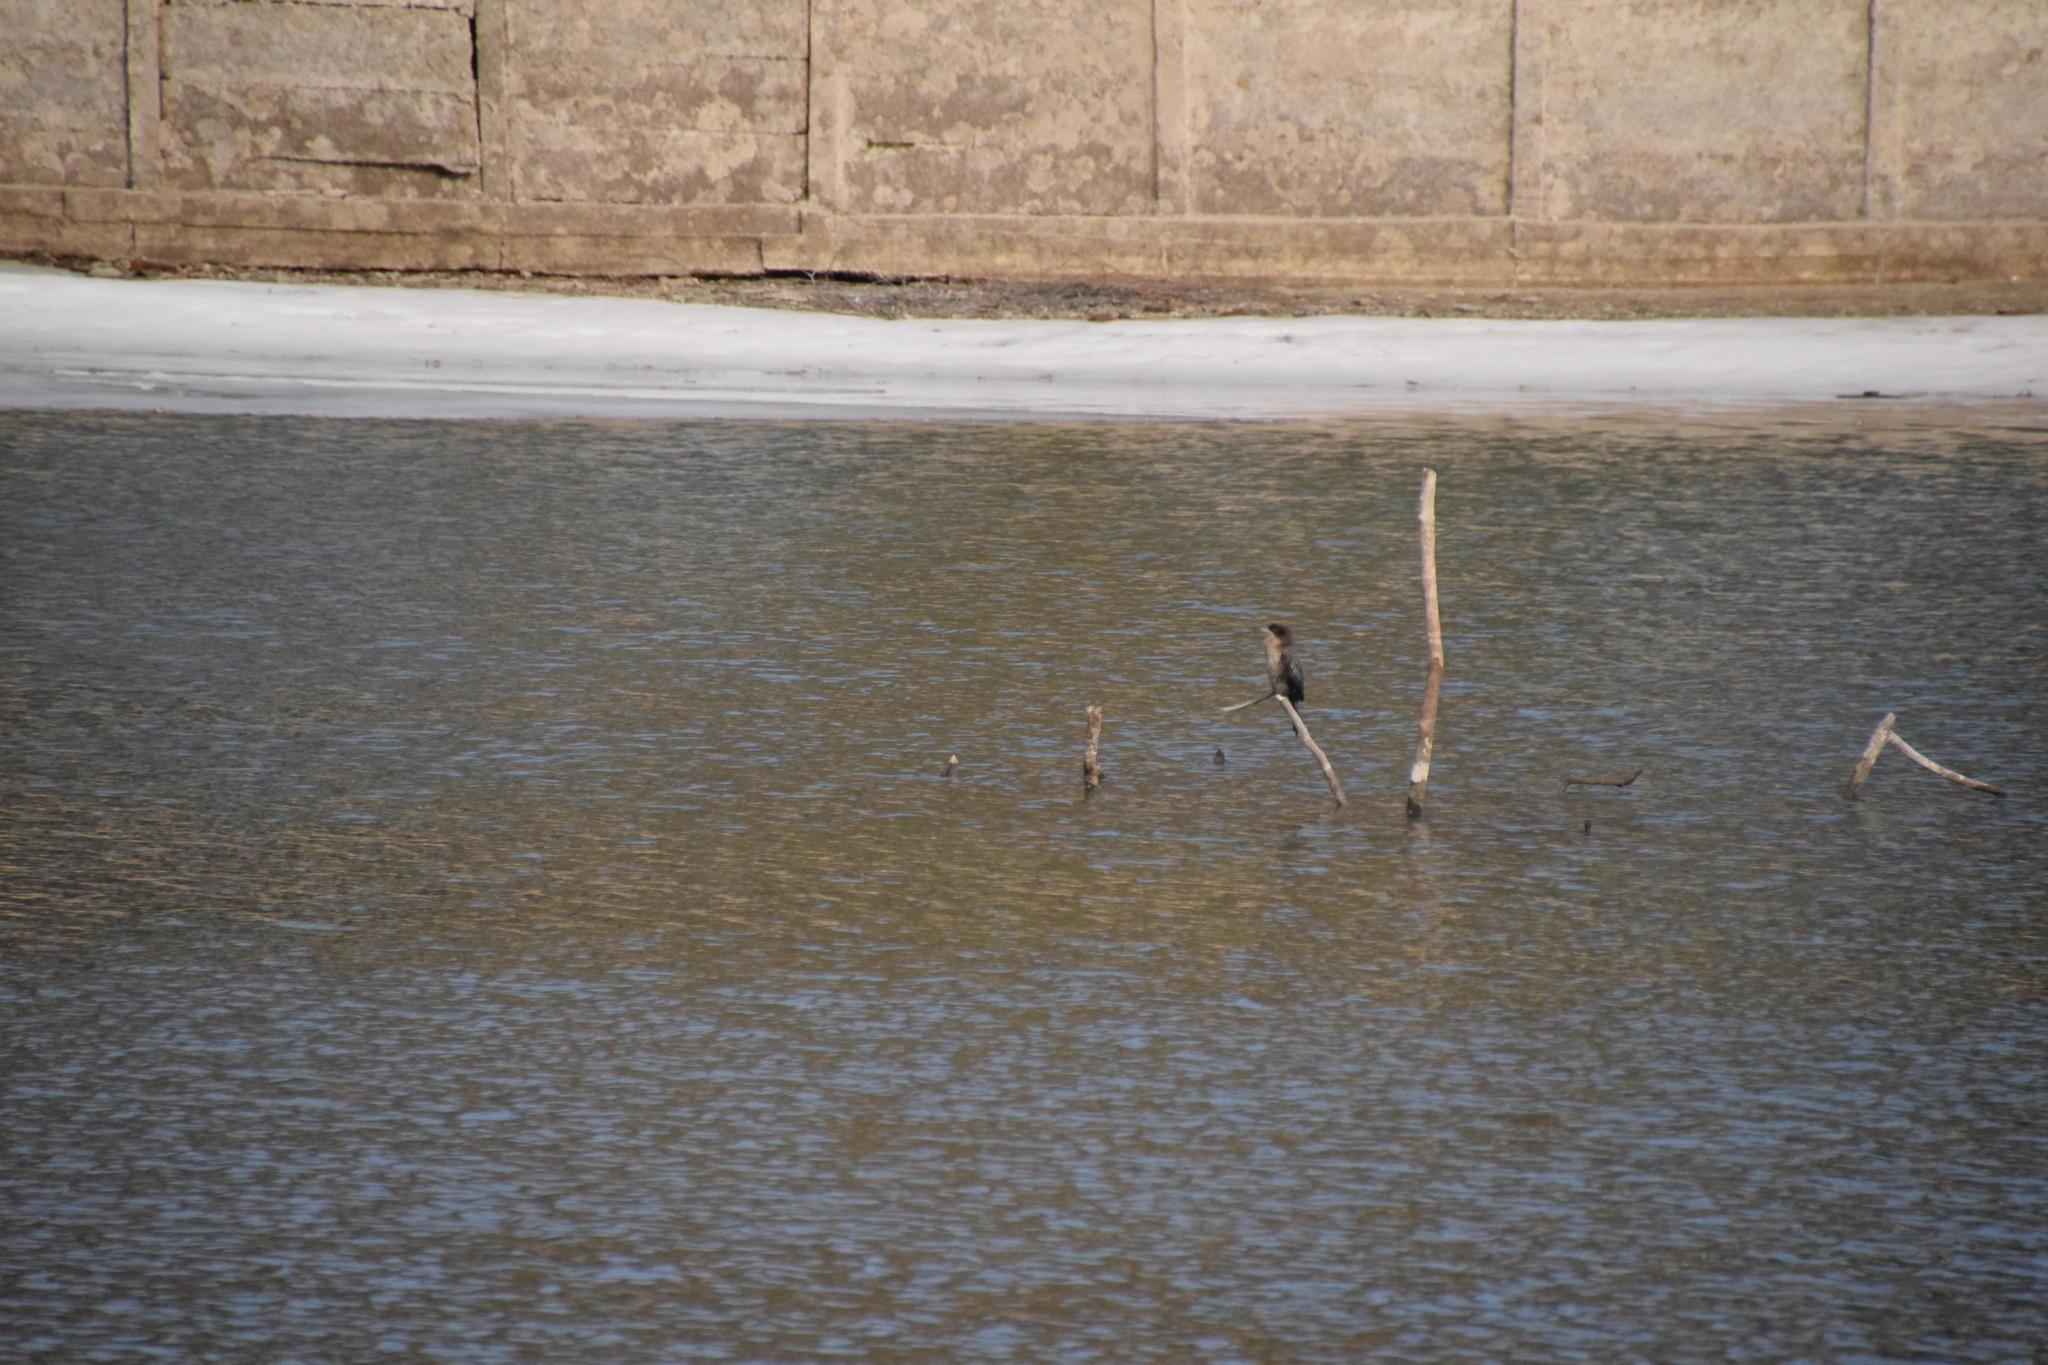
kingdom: Animalia
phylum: Chordata
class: Aves
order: Suliformes
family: Phalacrocoracidae
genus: Microcarbo
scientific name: Microcarbo pygmaeus
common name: Pygmy cormorant
